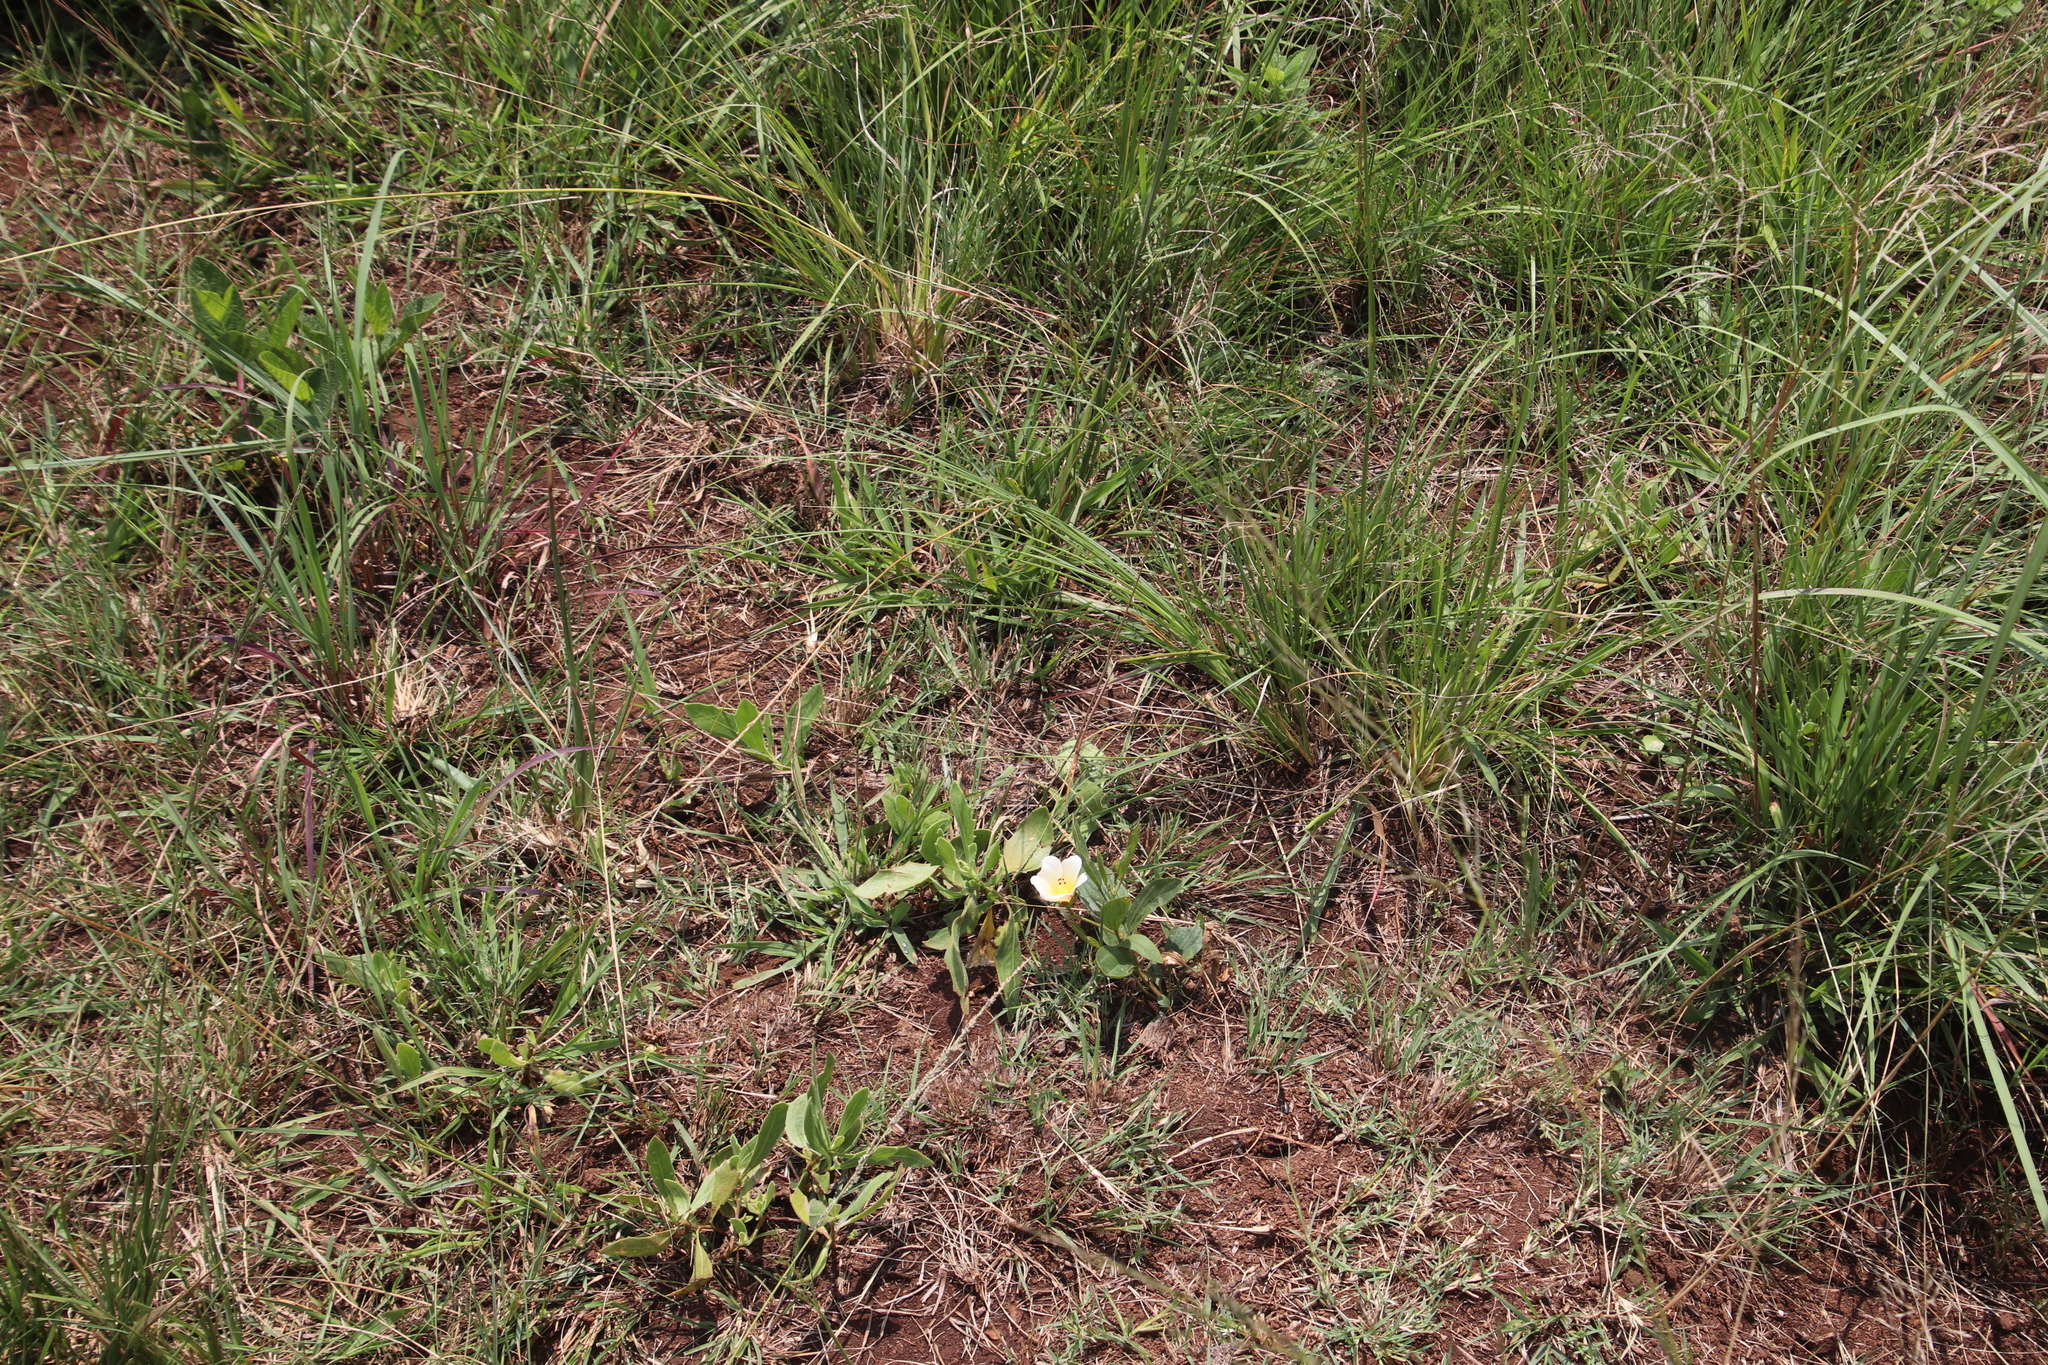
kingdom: Plantae
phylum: Tracheophyta
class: Magnoliopsida
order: Malvales
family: Malvaceae
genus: Hibiscus
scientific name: Hibiscus aethiopicus
